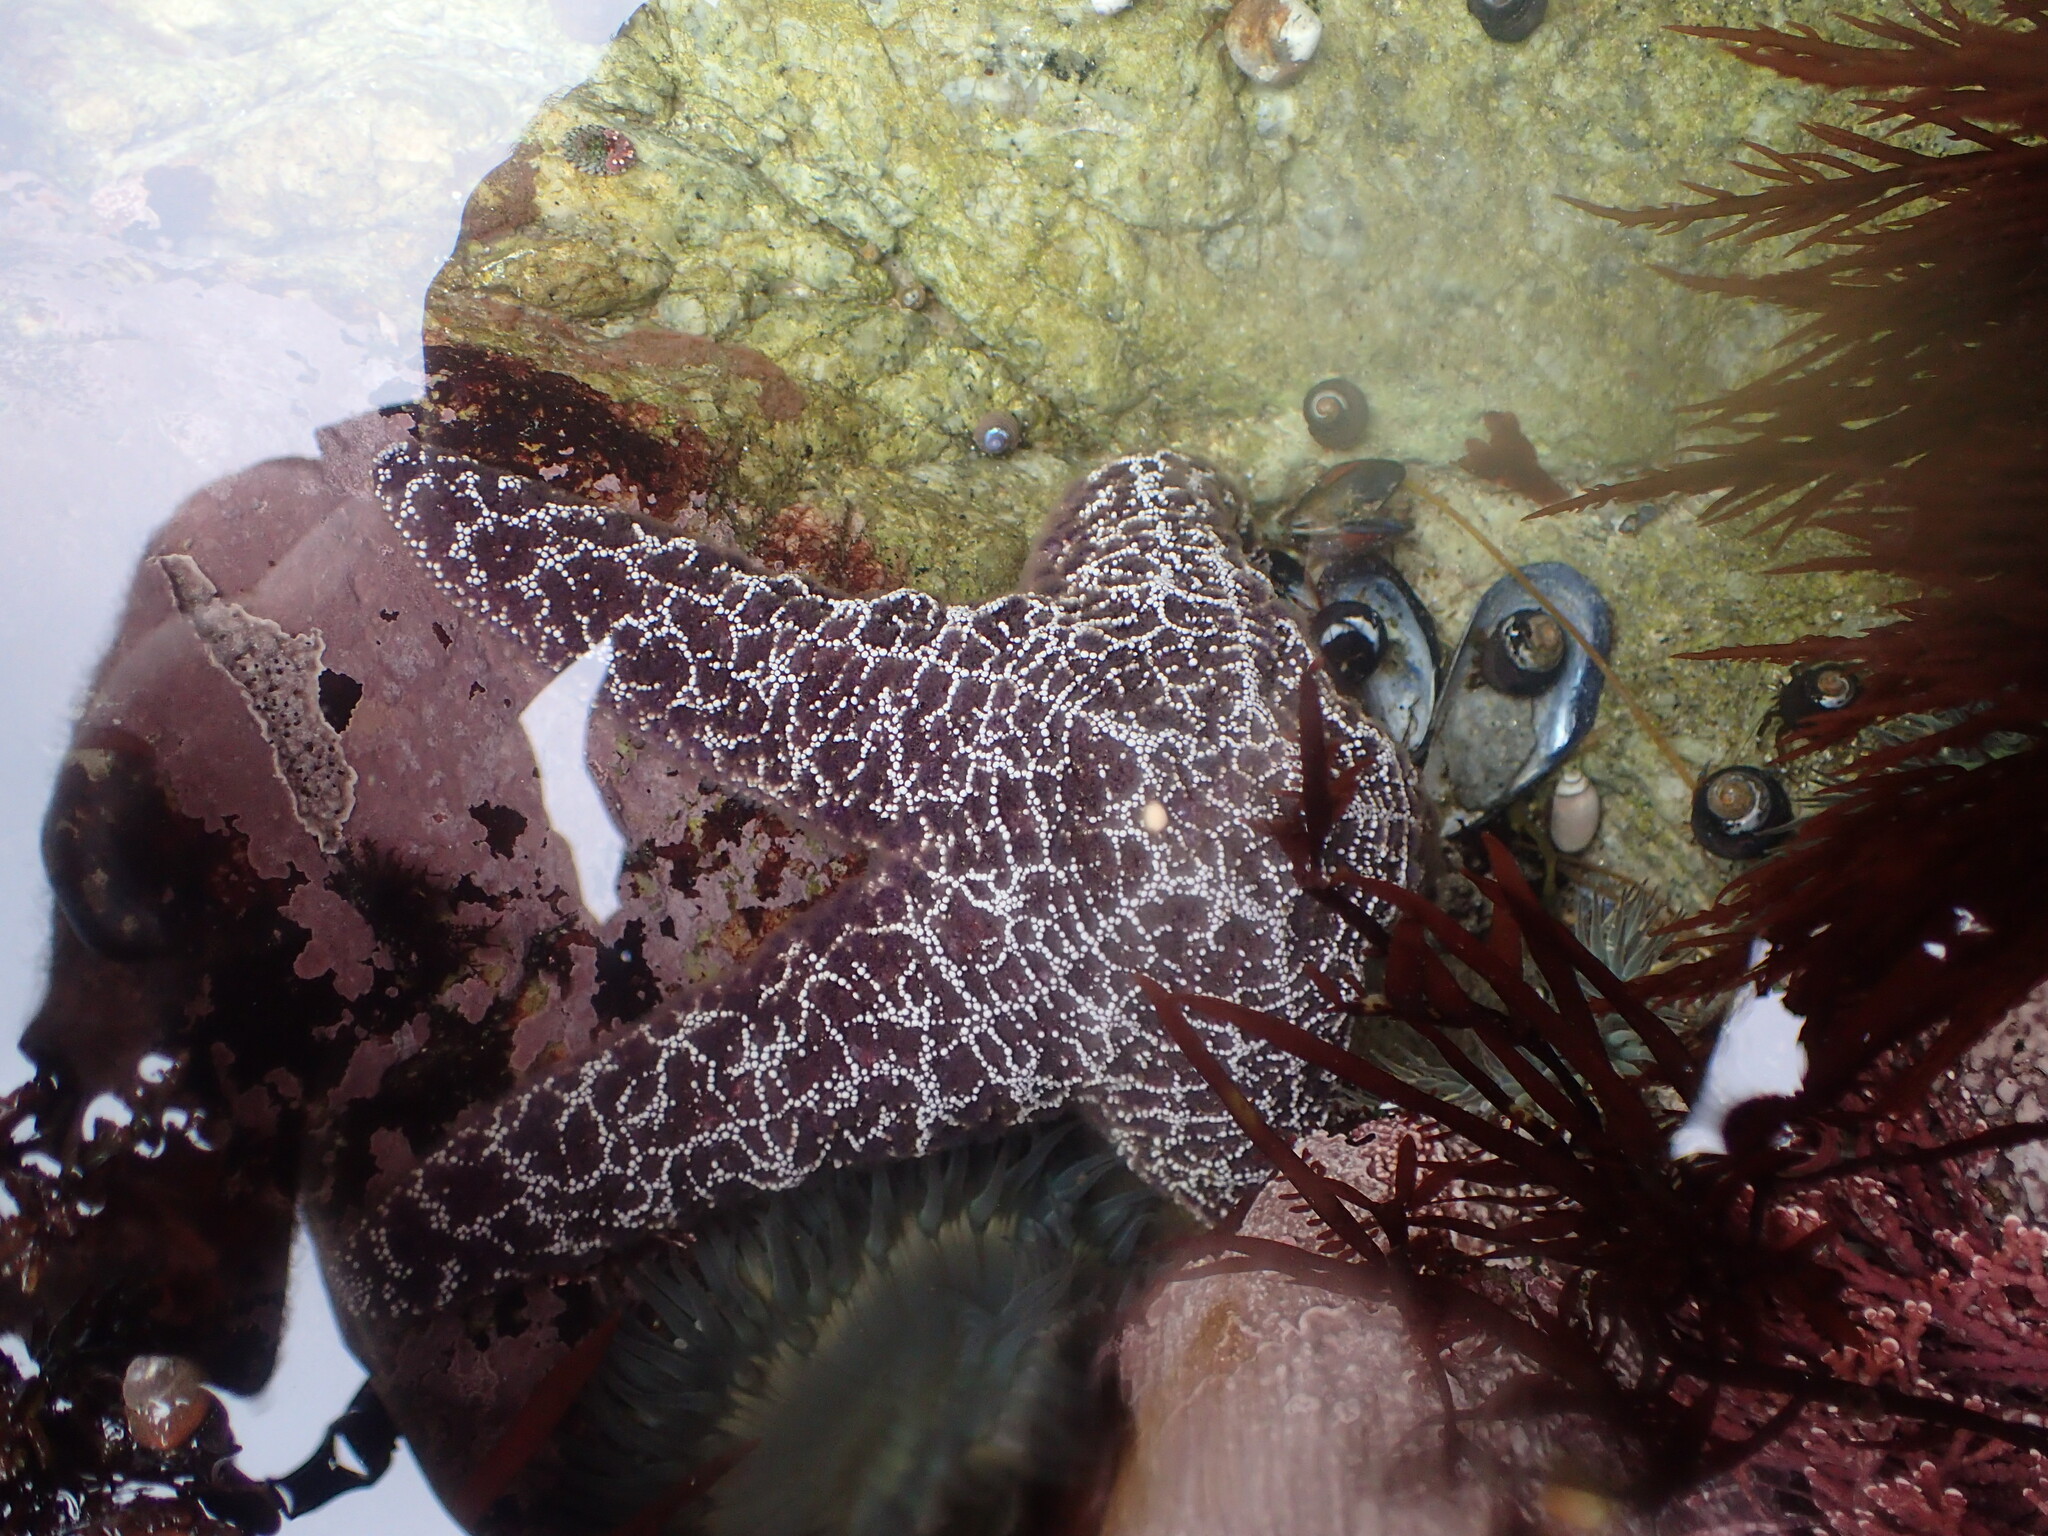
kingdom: Animalia
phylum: Echinodermata
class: Asteroidea
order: Forcipulatida
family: Asteriidae
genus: Pisaster
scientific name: Pisaster ochraceus
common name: Ochre stars
